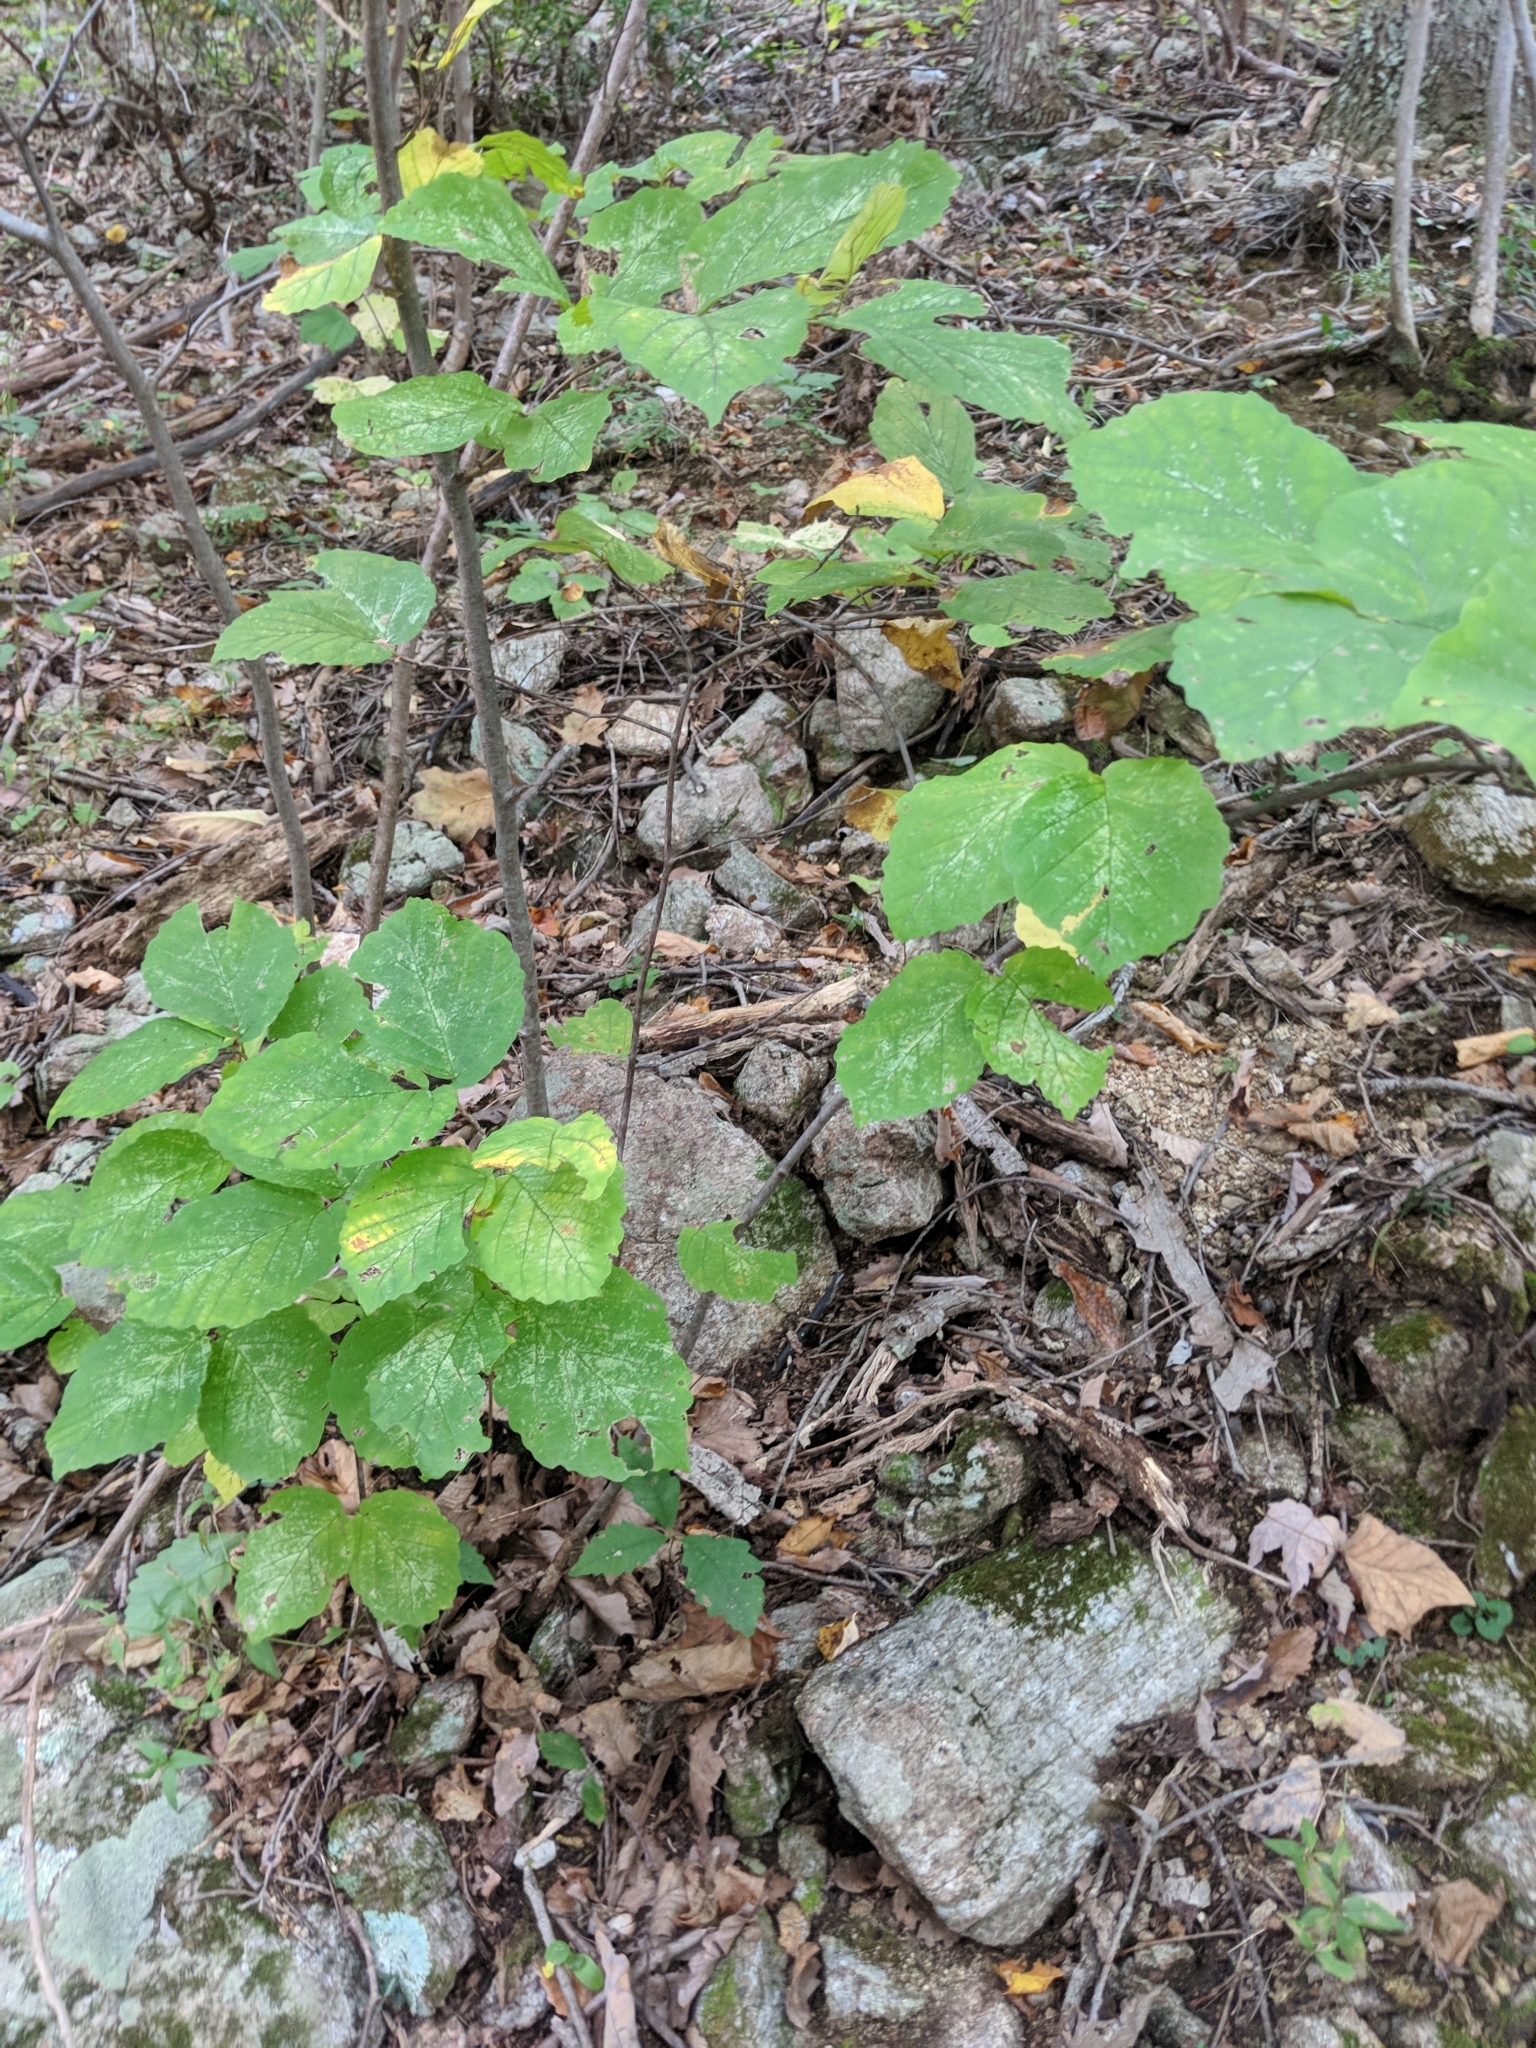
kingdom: Plantae
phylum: Tracheophyta
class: Magnoliopsida
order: Saxifragales
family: Hamamelidaceae
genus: Hamamelis
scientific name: Hamamelis virginiana
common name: Witch-hazel
